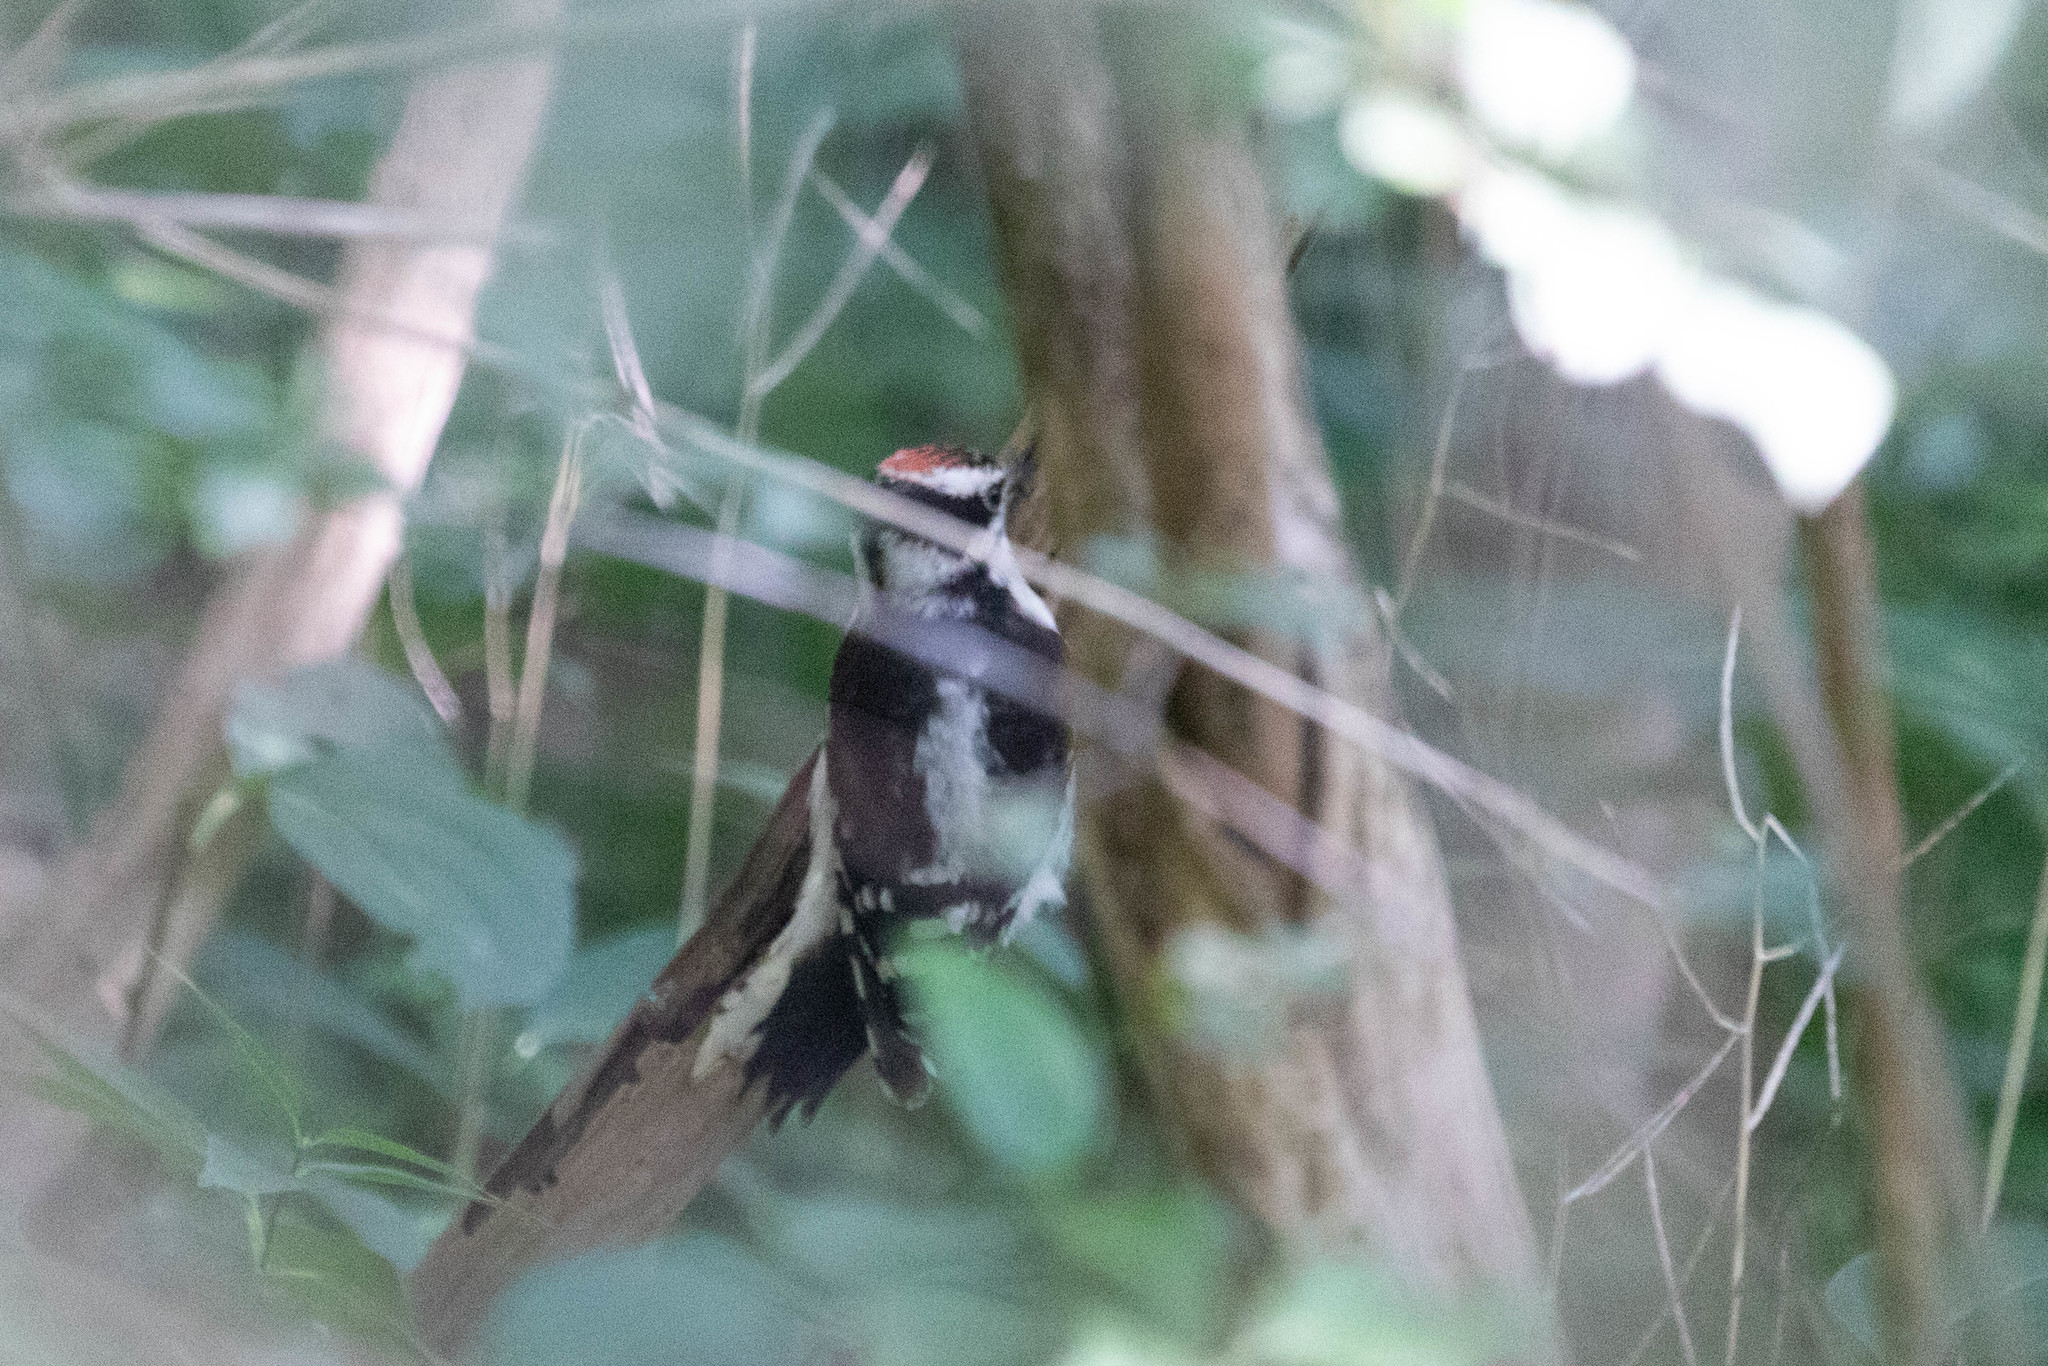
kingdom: Animalia
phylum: Chordata
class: Aves
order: Piciformes
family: Picidae
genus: Dryobates
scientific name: Dryobates pubescens
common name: Downy woodpecker
